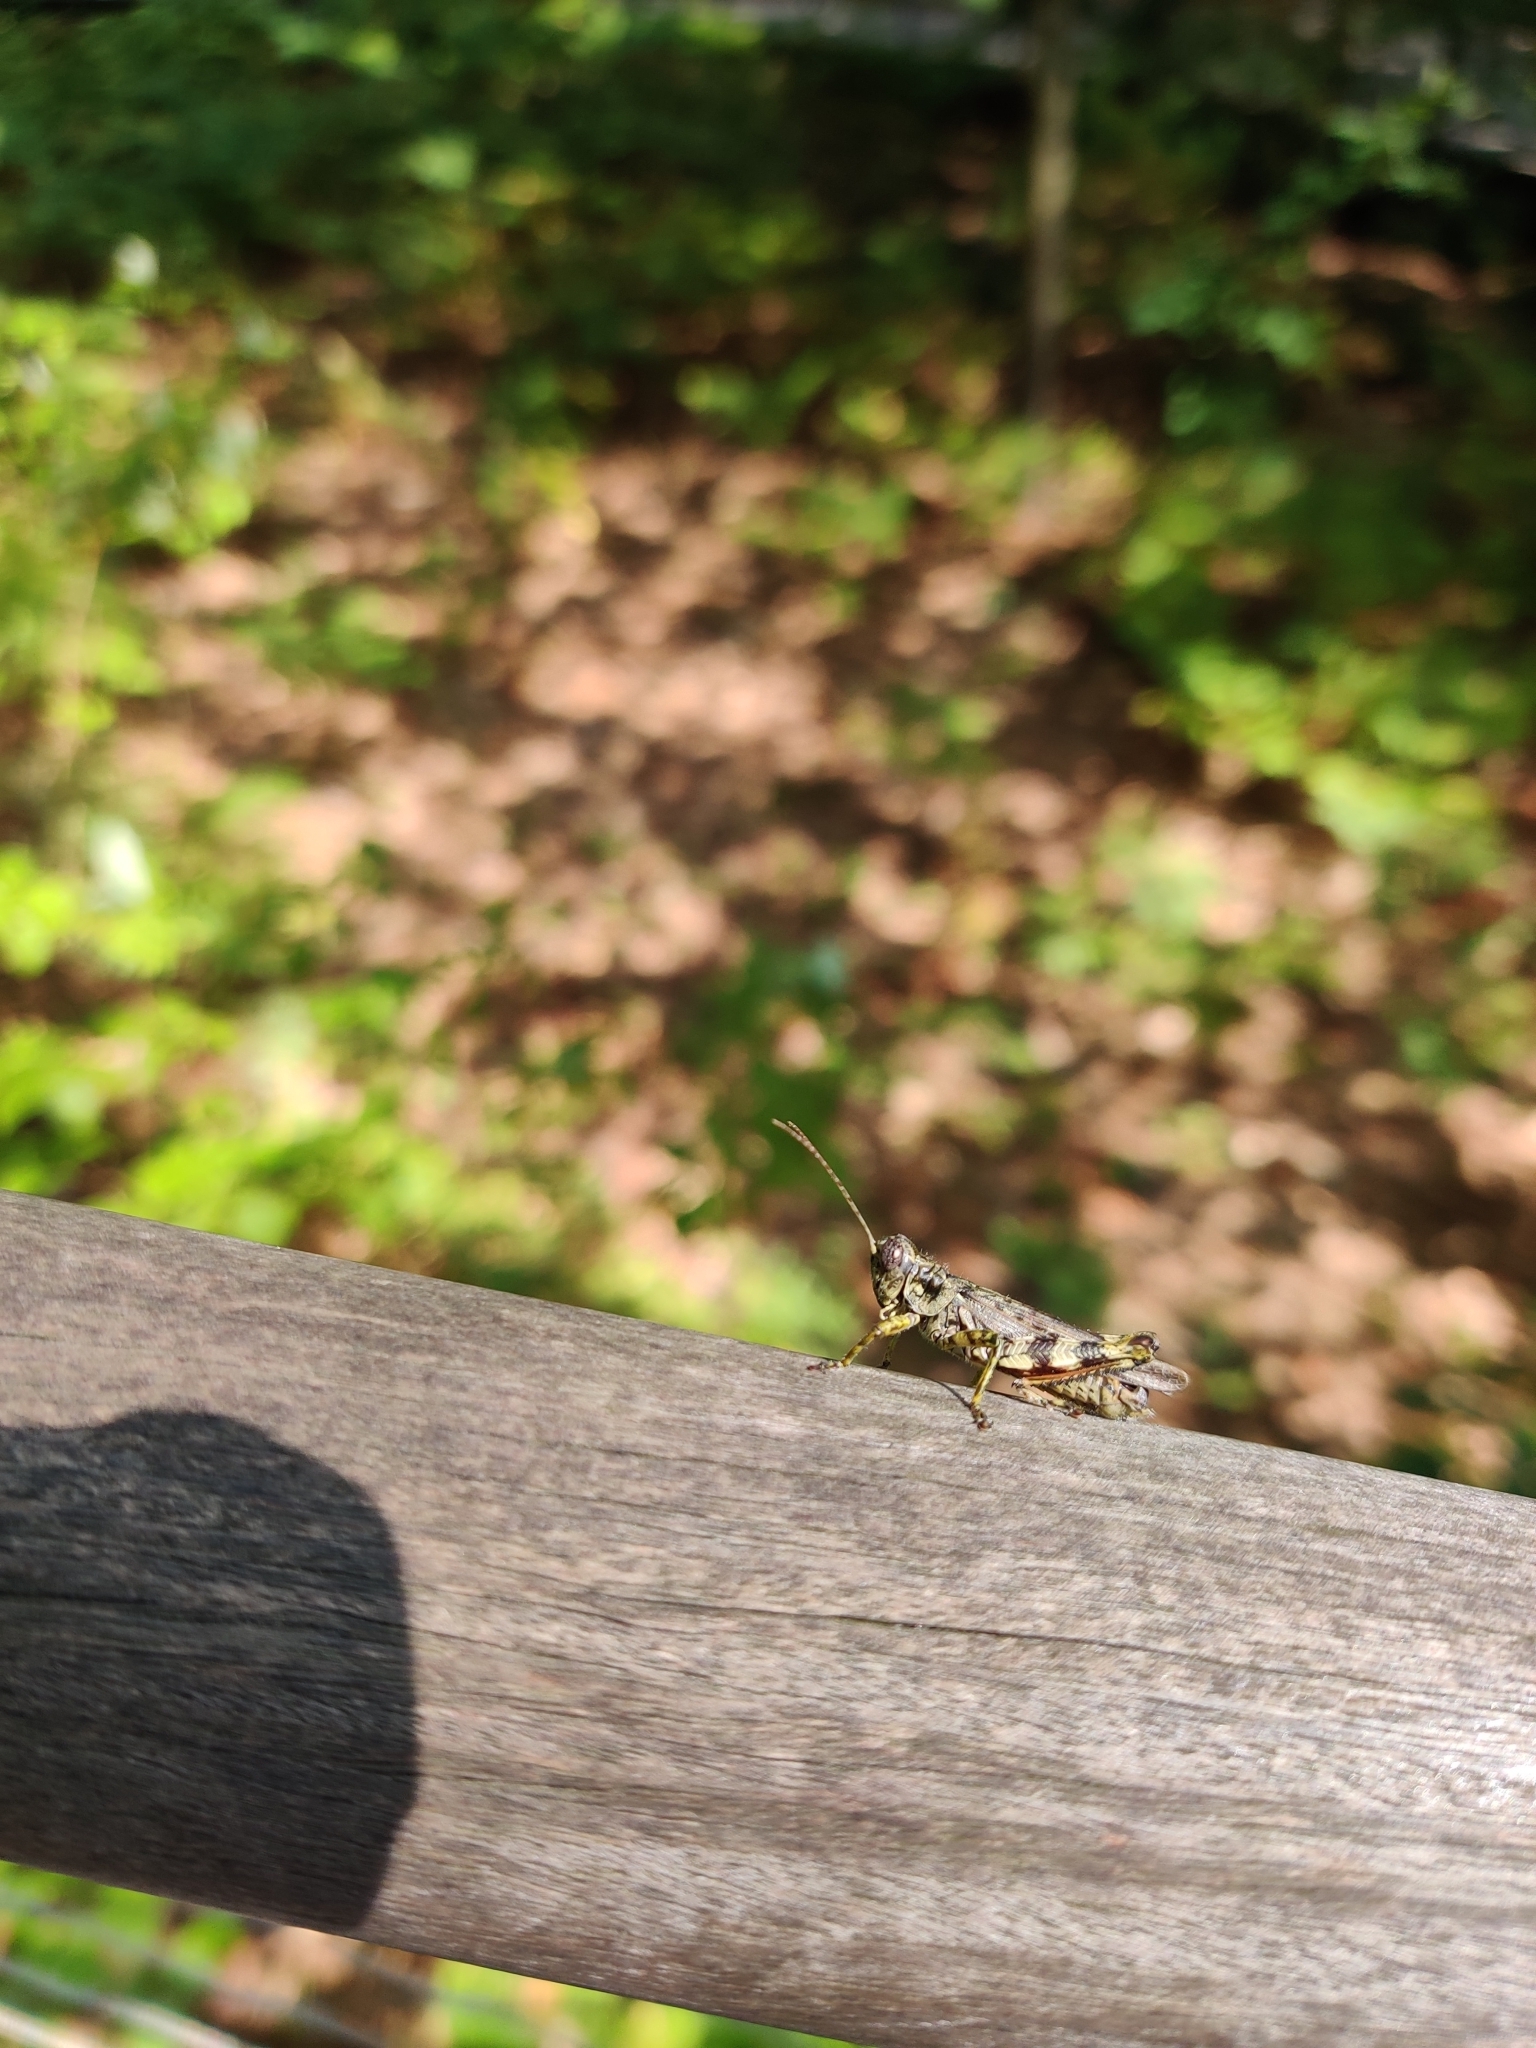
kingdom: Animalia
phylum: Arthropoda
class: Insecta
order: Orthoptera
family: Acrididae
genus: Melanoplus
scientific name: Melanoplus punctulatus
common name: Pine-tree spur-throat grasshopper
